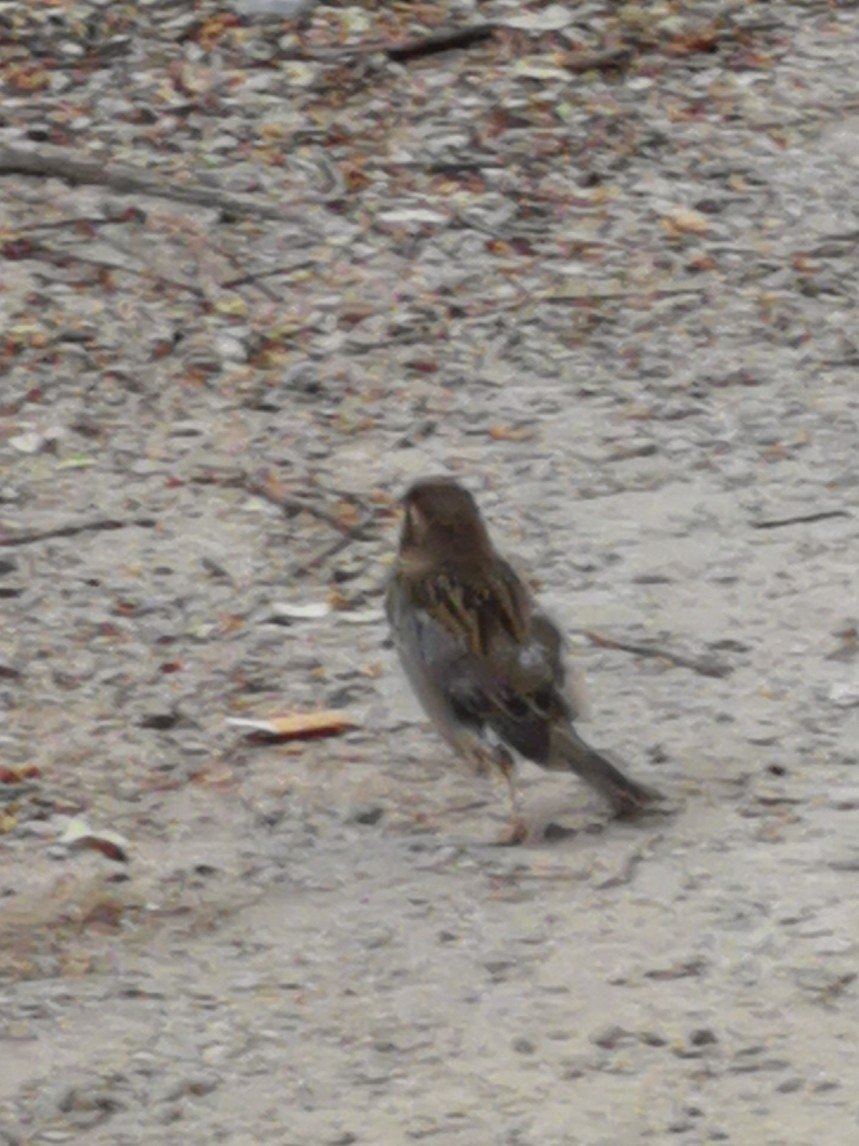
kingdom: Animalia
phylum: Chordata
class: Aves
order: Passeriformes
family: Passeridae
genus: Passer
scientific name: Passer domesticus
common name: House sparrow
